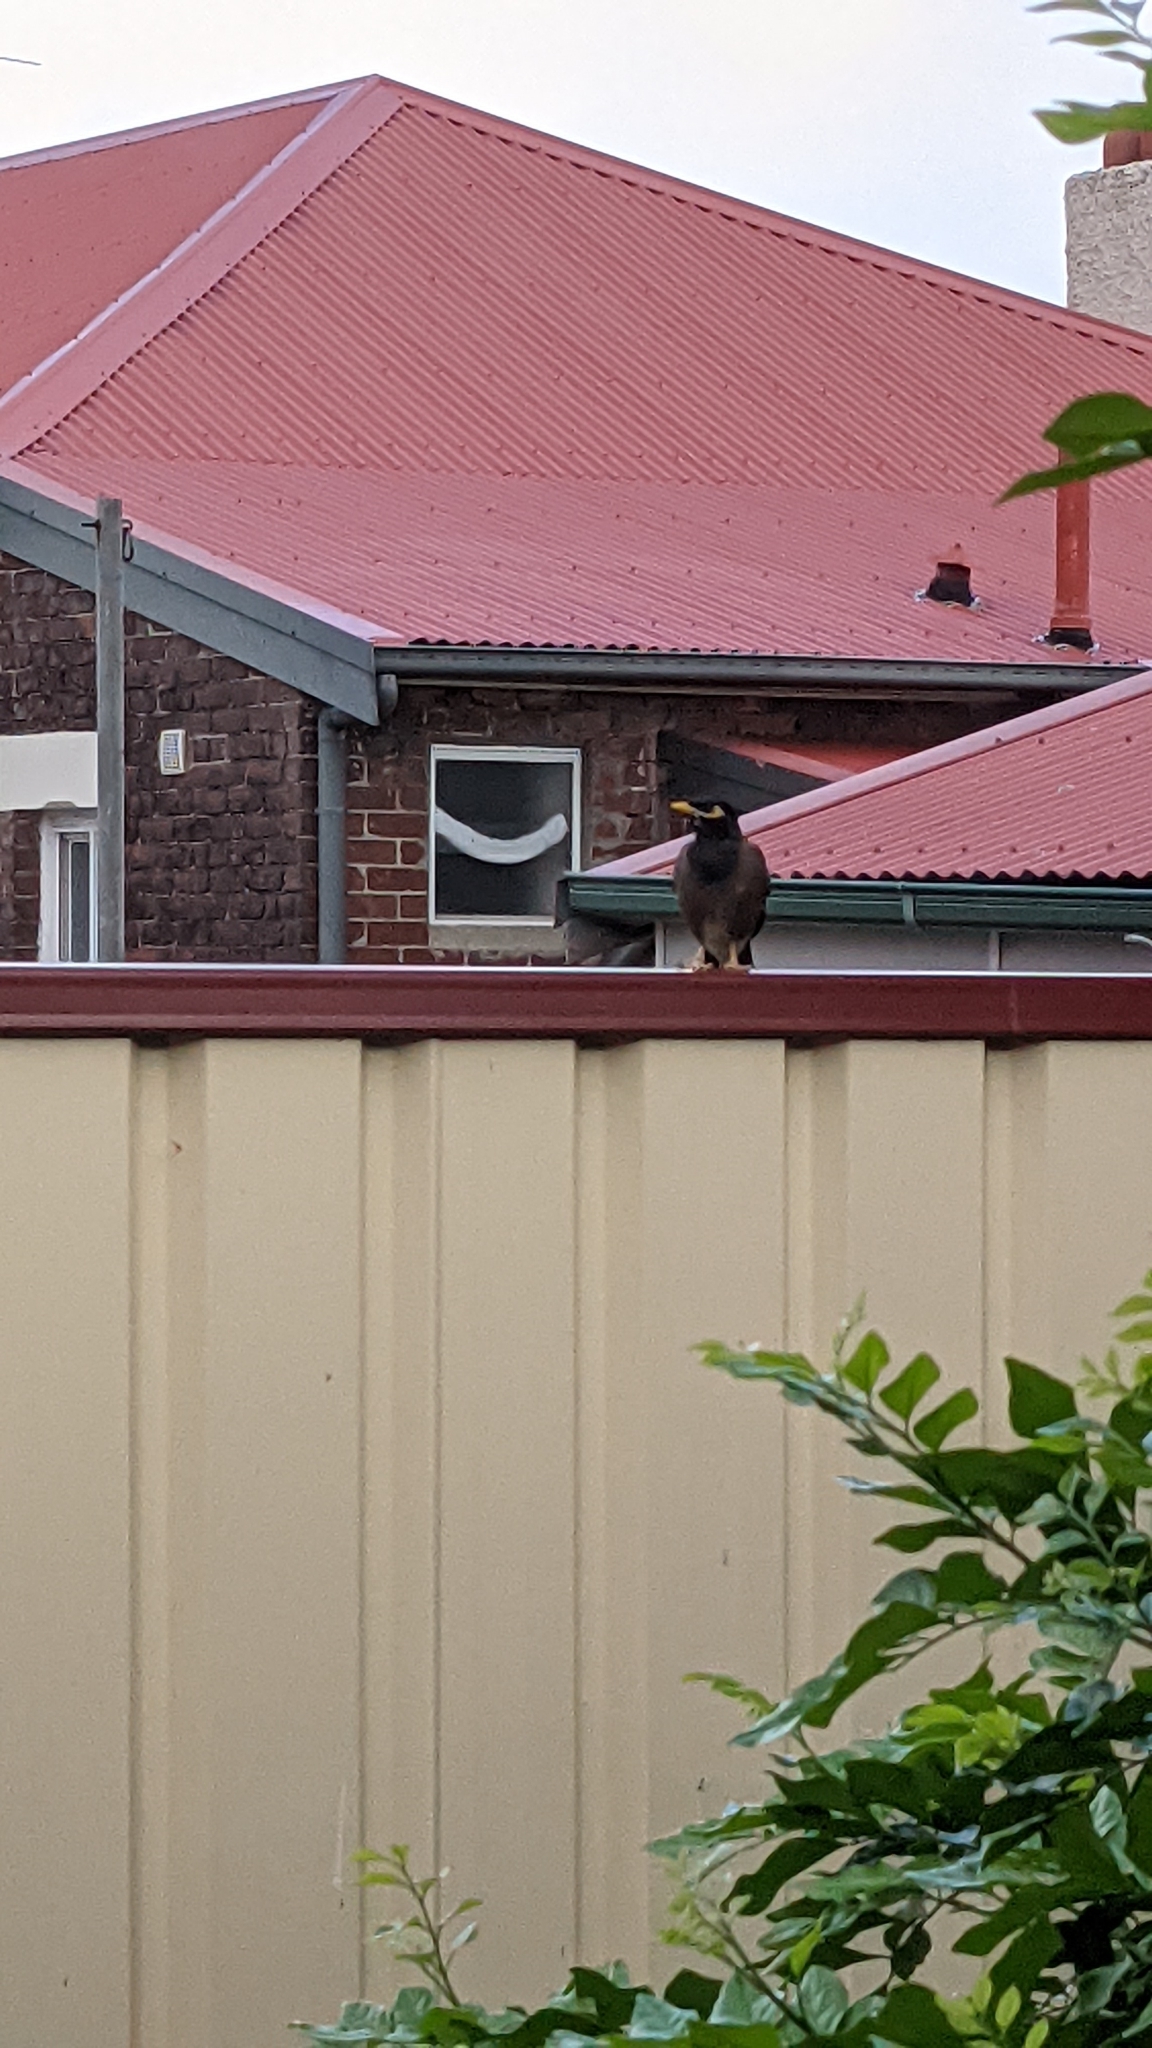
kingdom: Animalia
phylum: Chordata
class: Aves
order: Passeriformes
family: Sturnidae
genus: Acridotheres
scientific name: Acridotheres tristis
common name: Common myna
